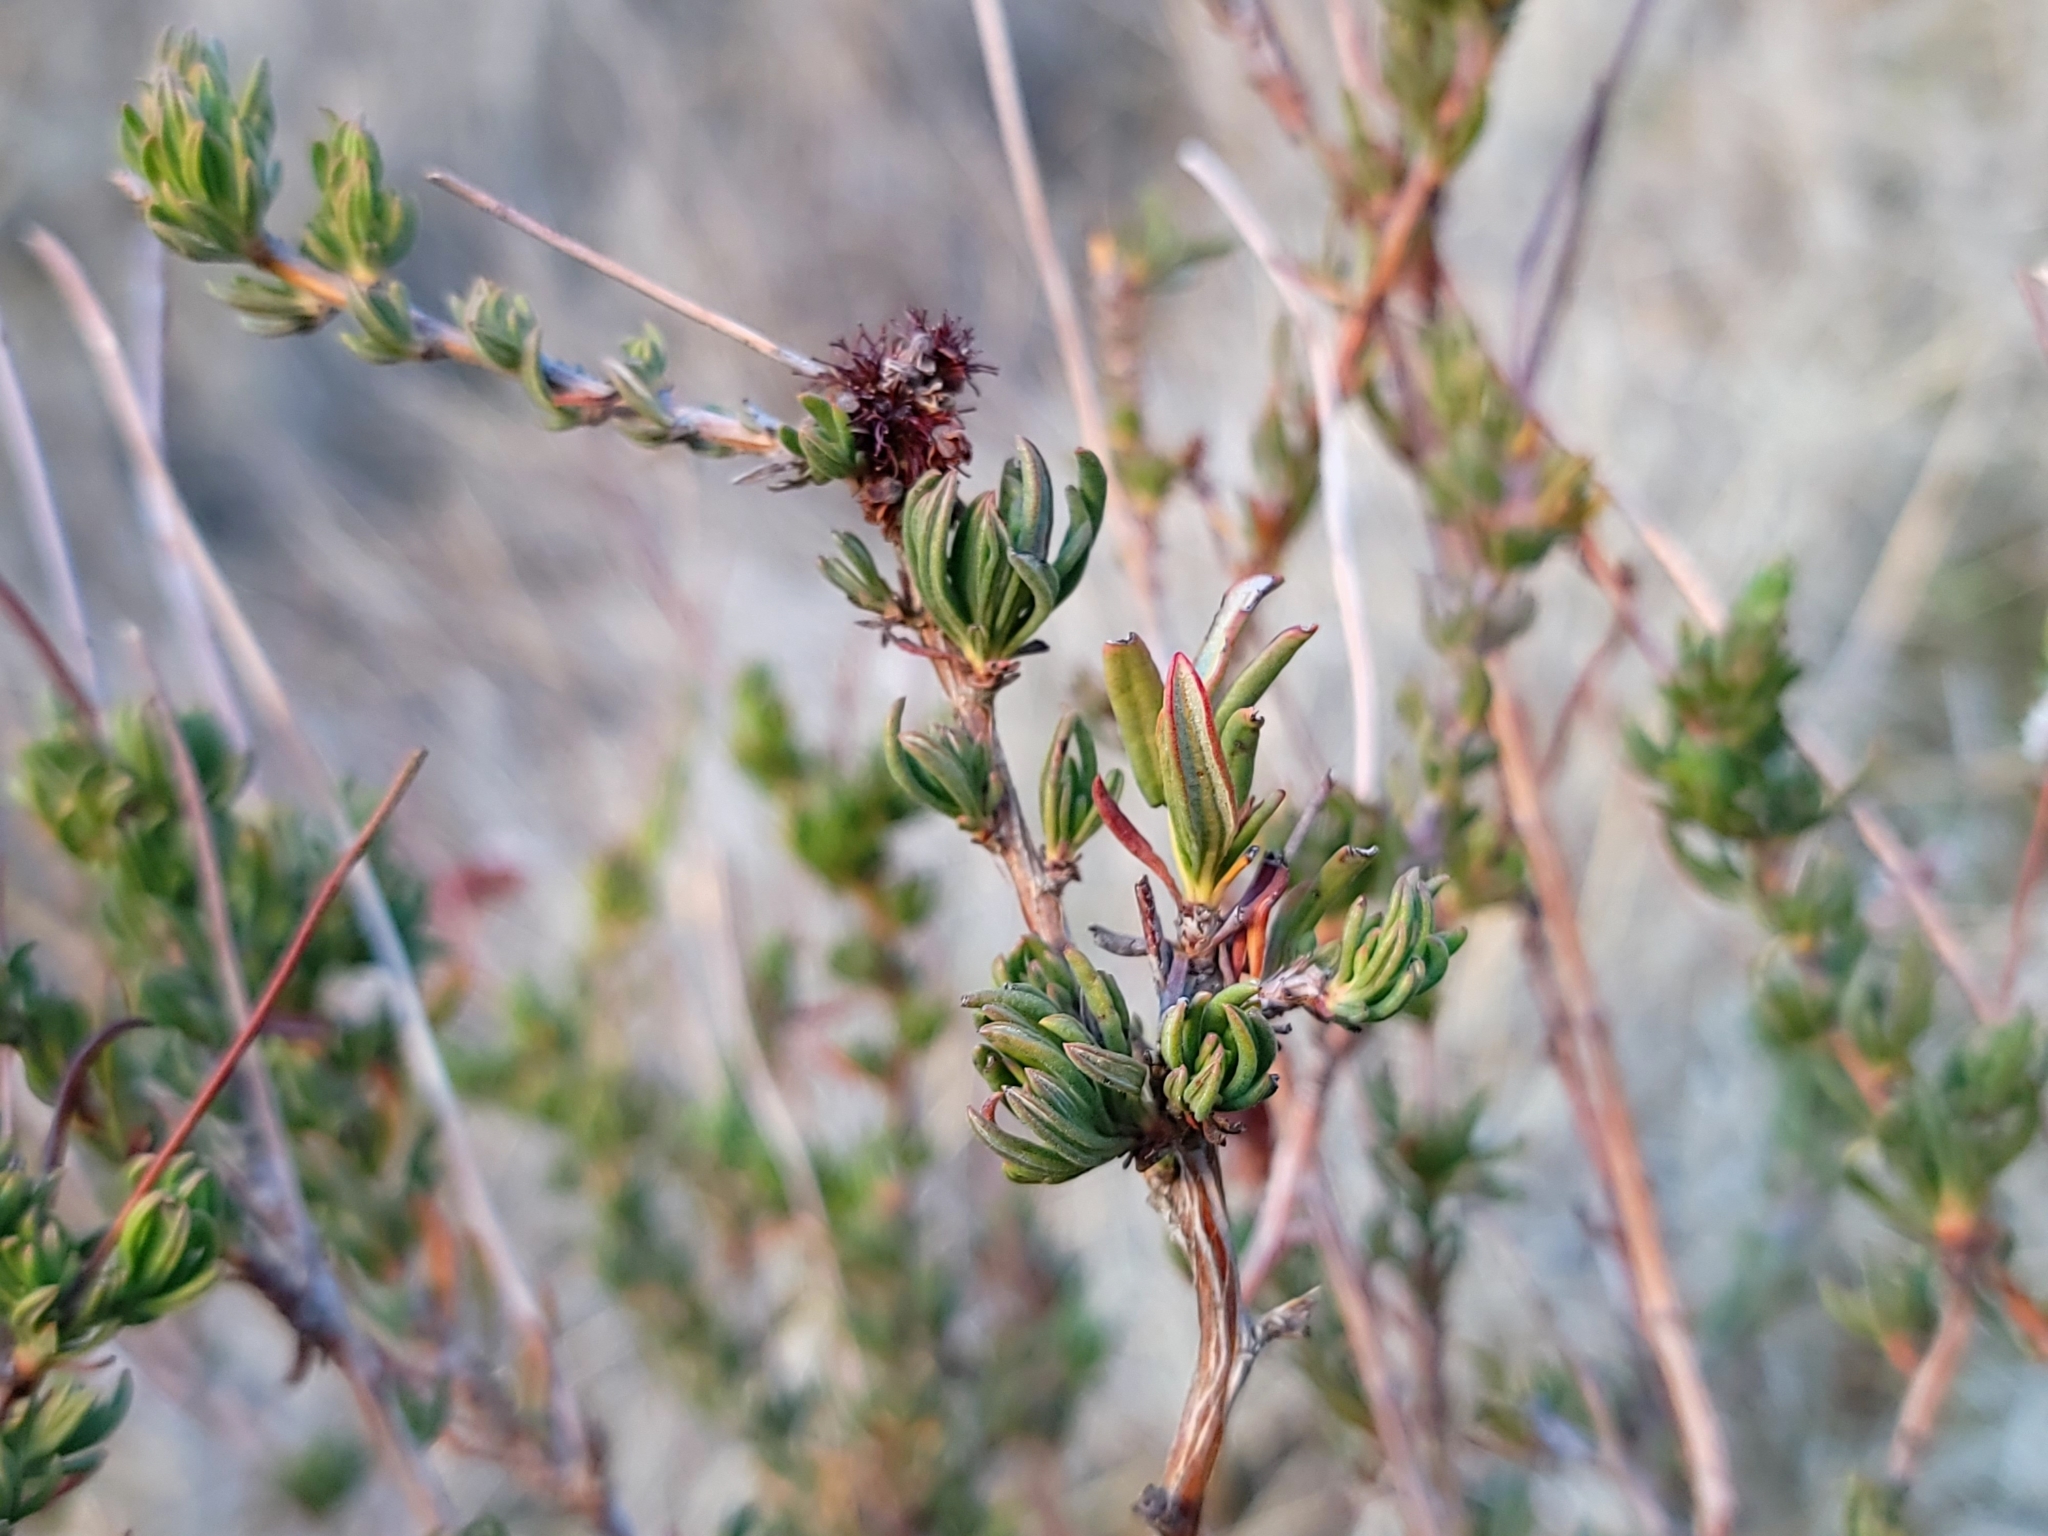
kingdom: Plantae
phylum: Tracheophyta
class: Magnoliopsida
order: Caryophyllales
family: Polygonaceae
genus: Eriogonum
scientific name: Eriogonum fasciculatum
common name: California wild buckwheat
